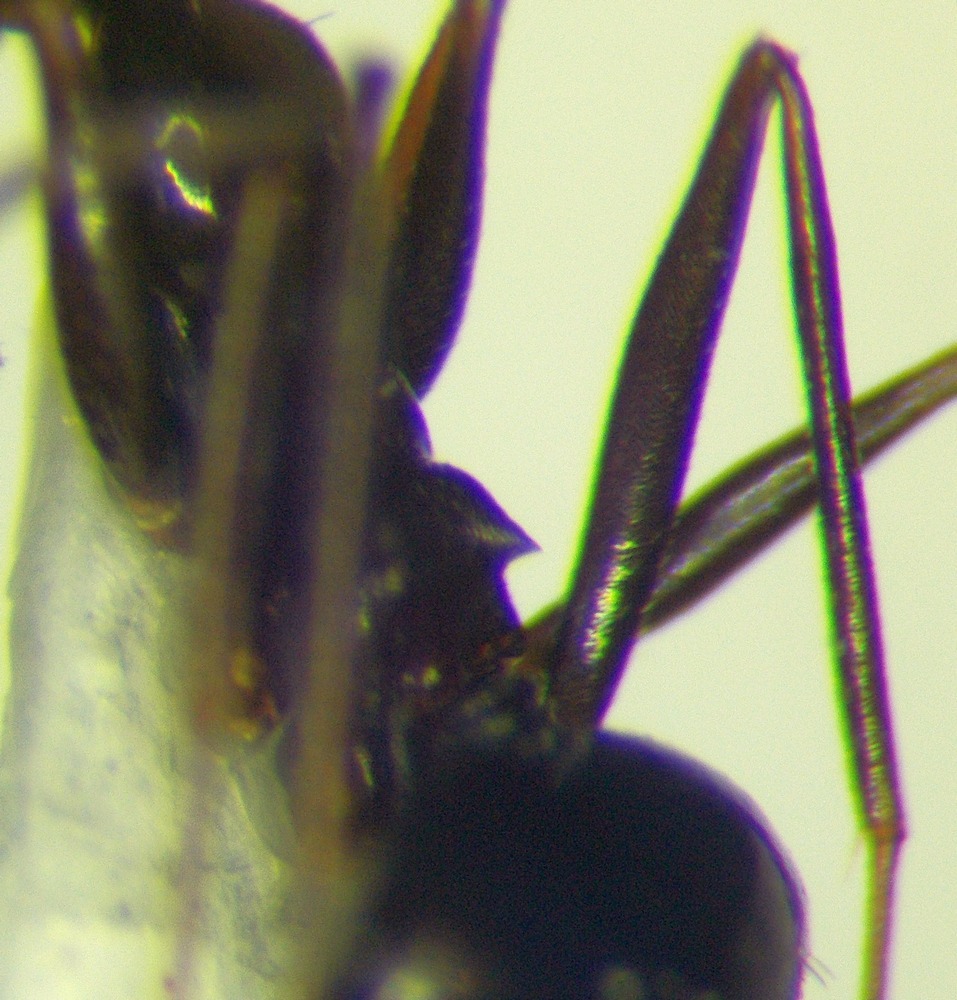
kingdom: Animalia
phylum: Arthropoda
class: Insecta
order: Hymenoptera
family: Formicidae
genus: Lepisiota
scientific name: Lepisiota semenovi
